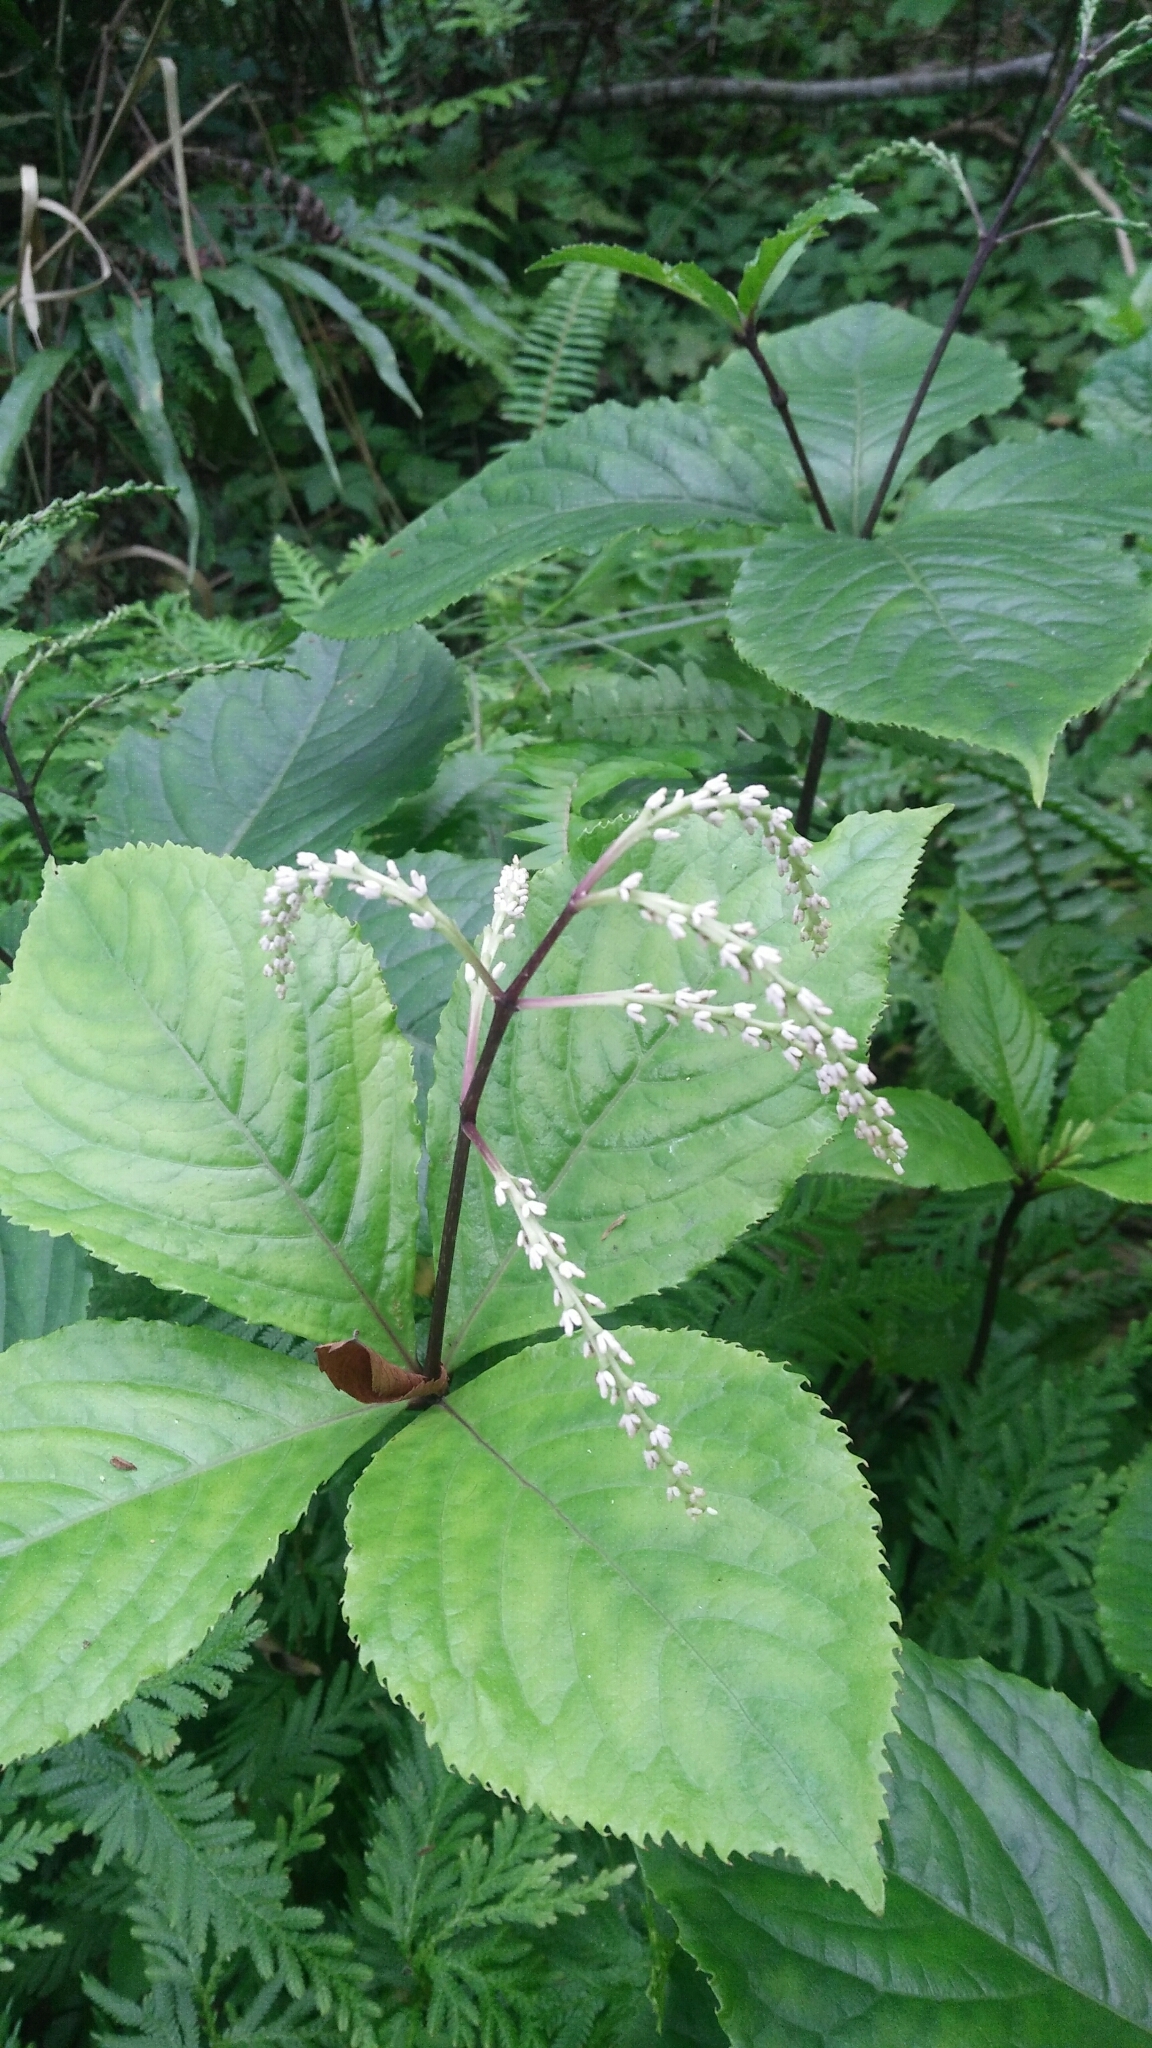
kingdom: Plantae
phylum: Tracheophyta
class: Magnoliopsida
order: Chloranthales
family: Chloranthaceae
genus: Chloranthus
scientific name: Chloranthus oldhamii
